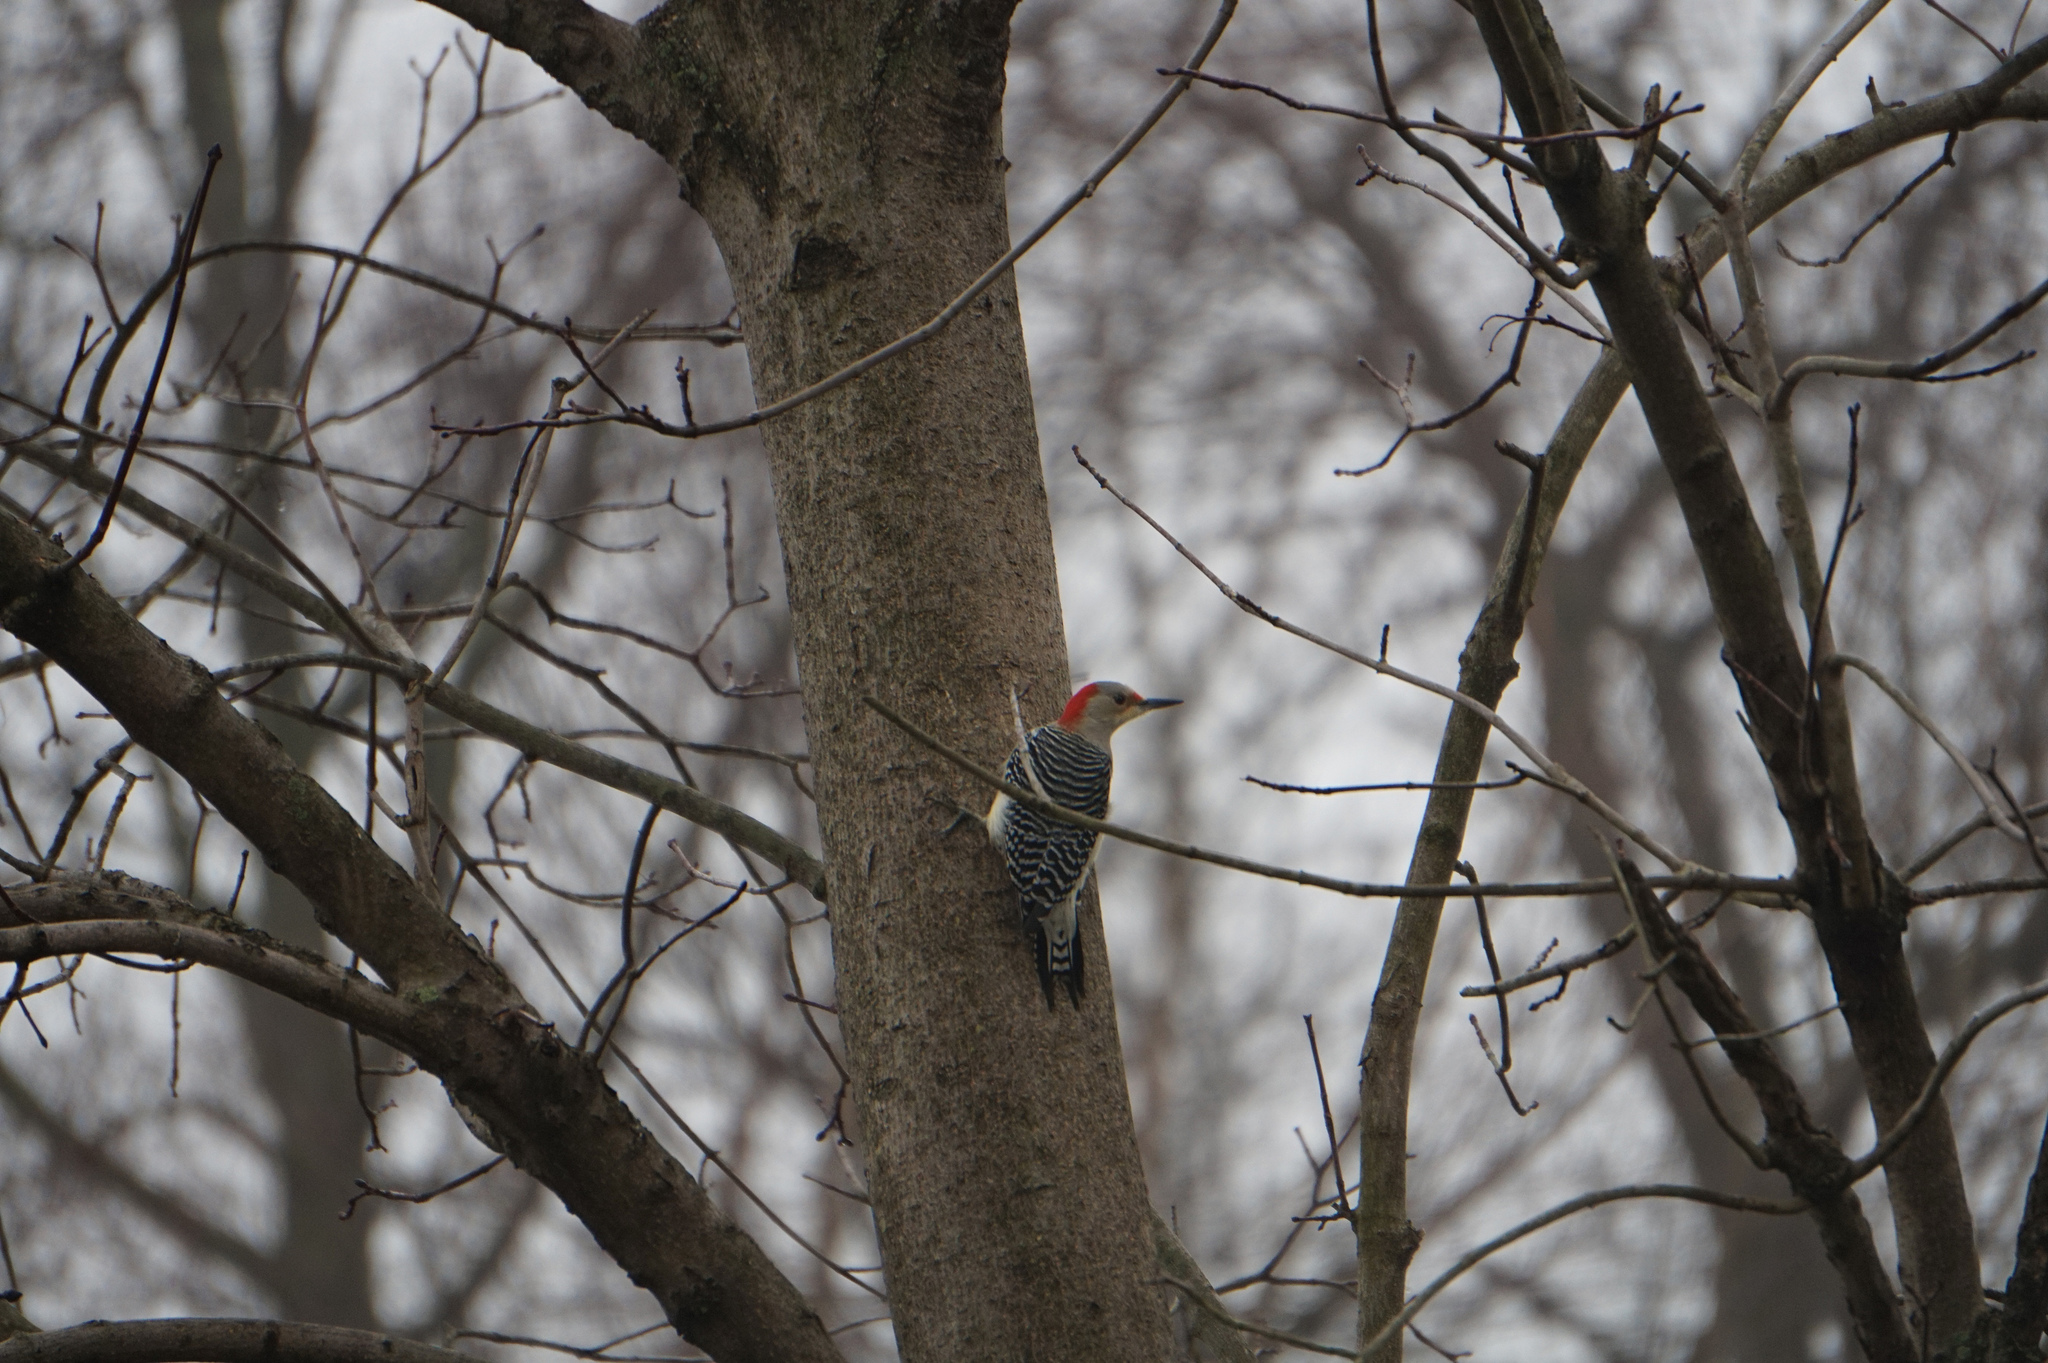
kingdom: Animalia
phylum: Chordata
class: Aves
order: Piciformes
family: Picidae
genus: Melanerpes
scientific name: Melanerpes carolinus
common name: Red-bellied woodpecker
